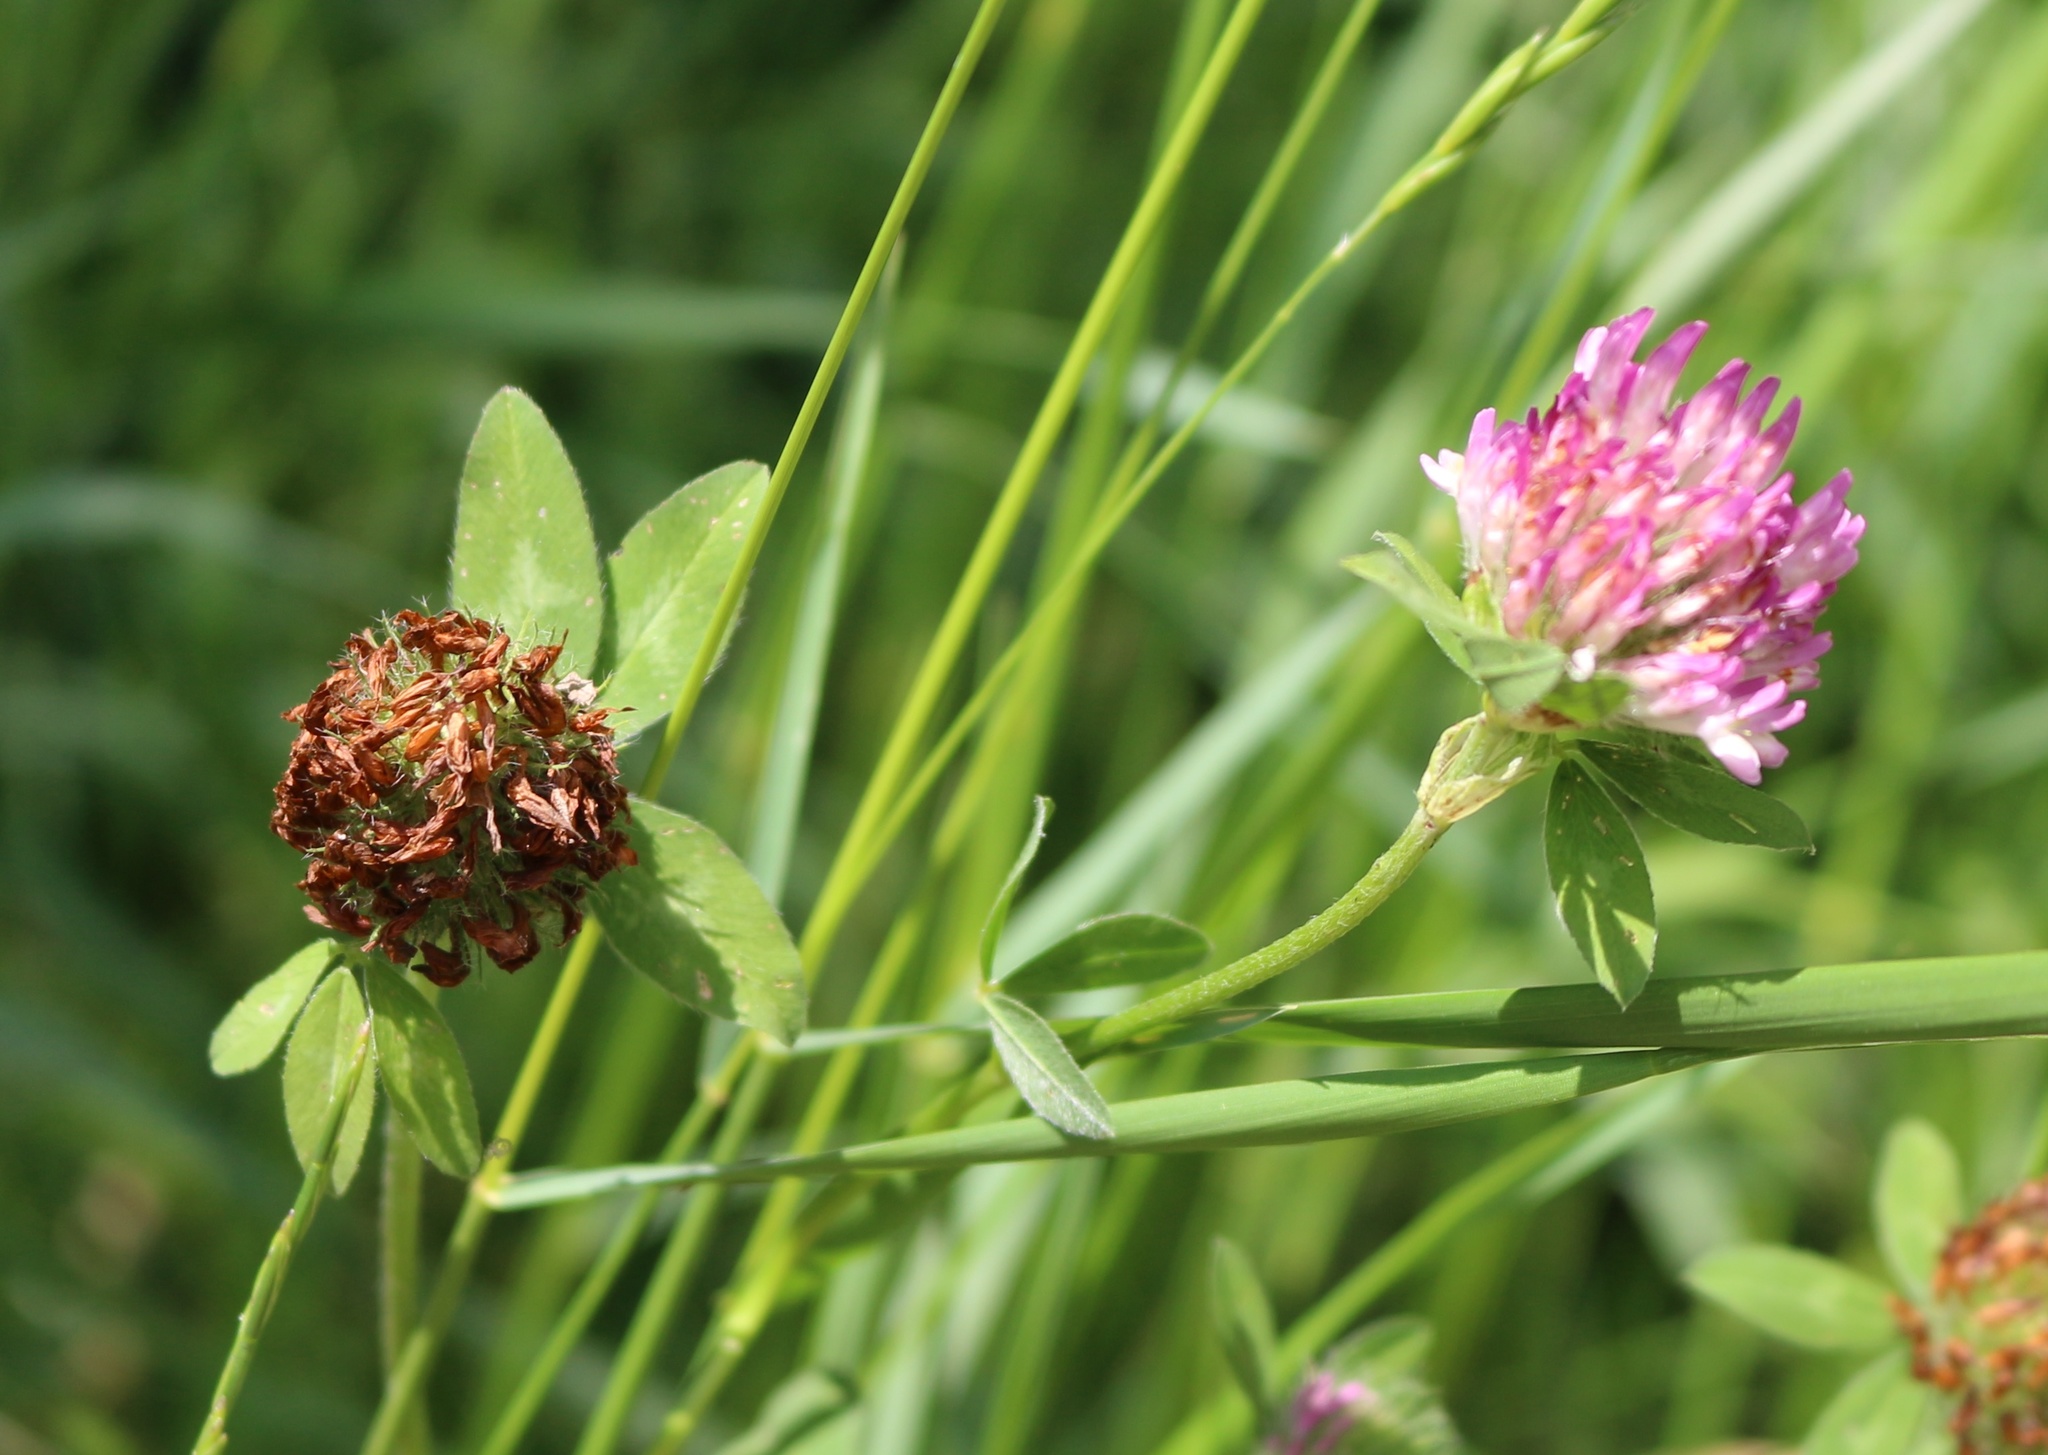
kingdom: Plantae
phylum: Tracheophyta
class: Magnoliopsida
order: Fabales
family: Fabaceae
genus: Trifolium
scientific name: Trifolium pratense
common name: Red clover
